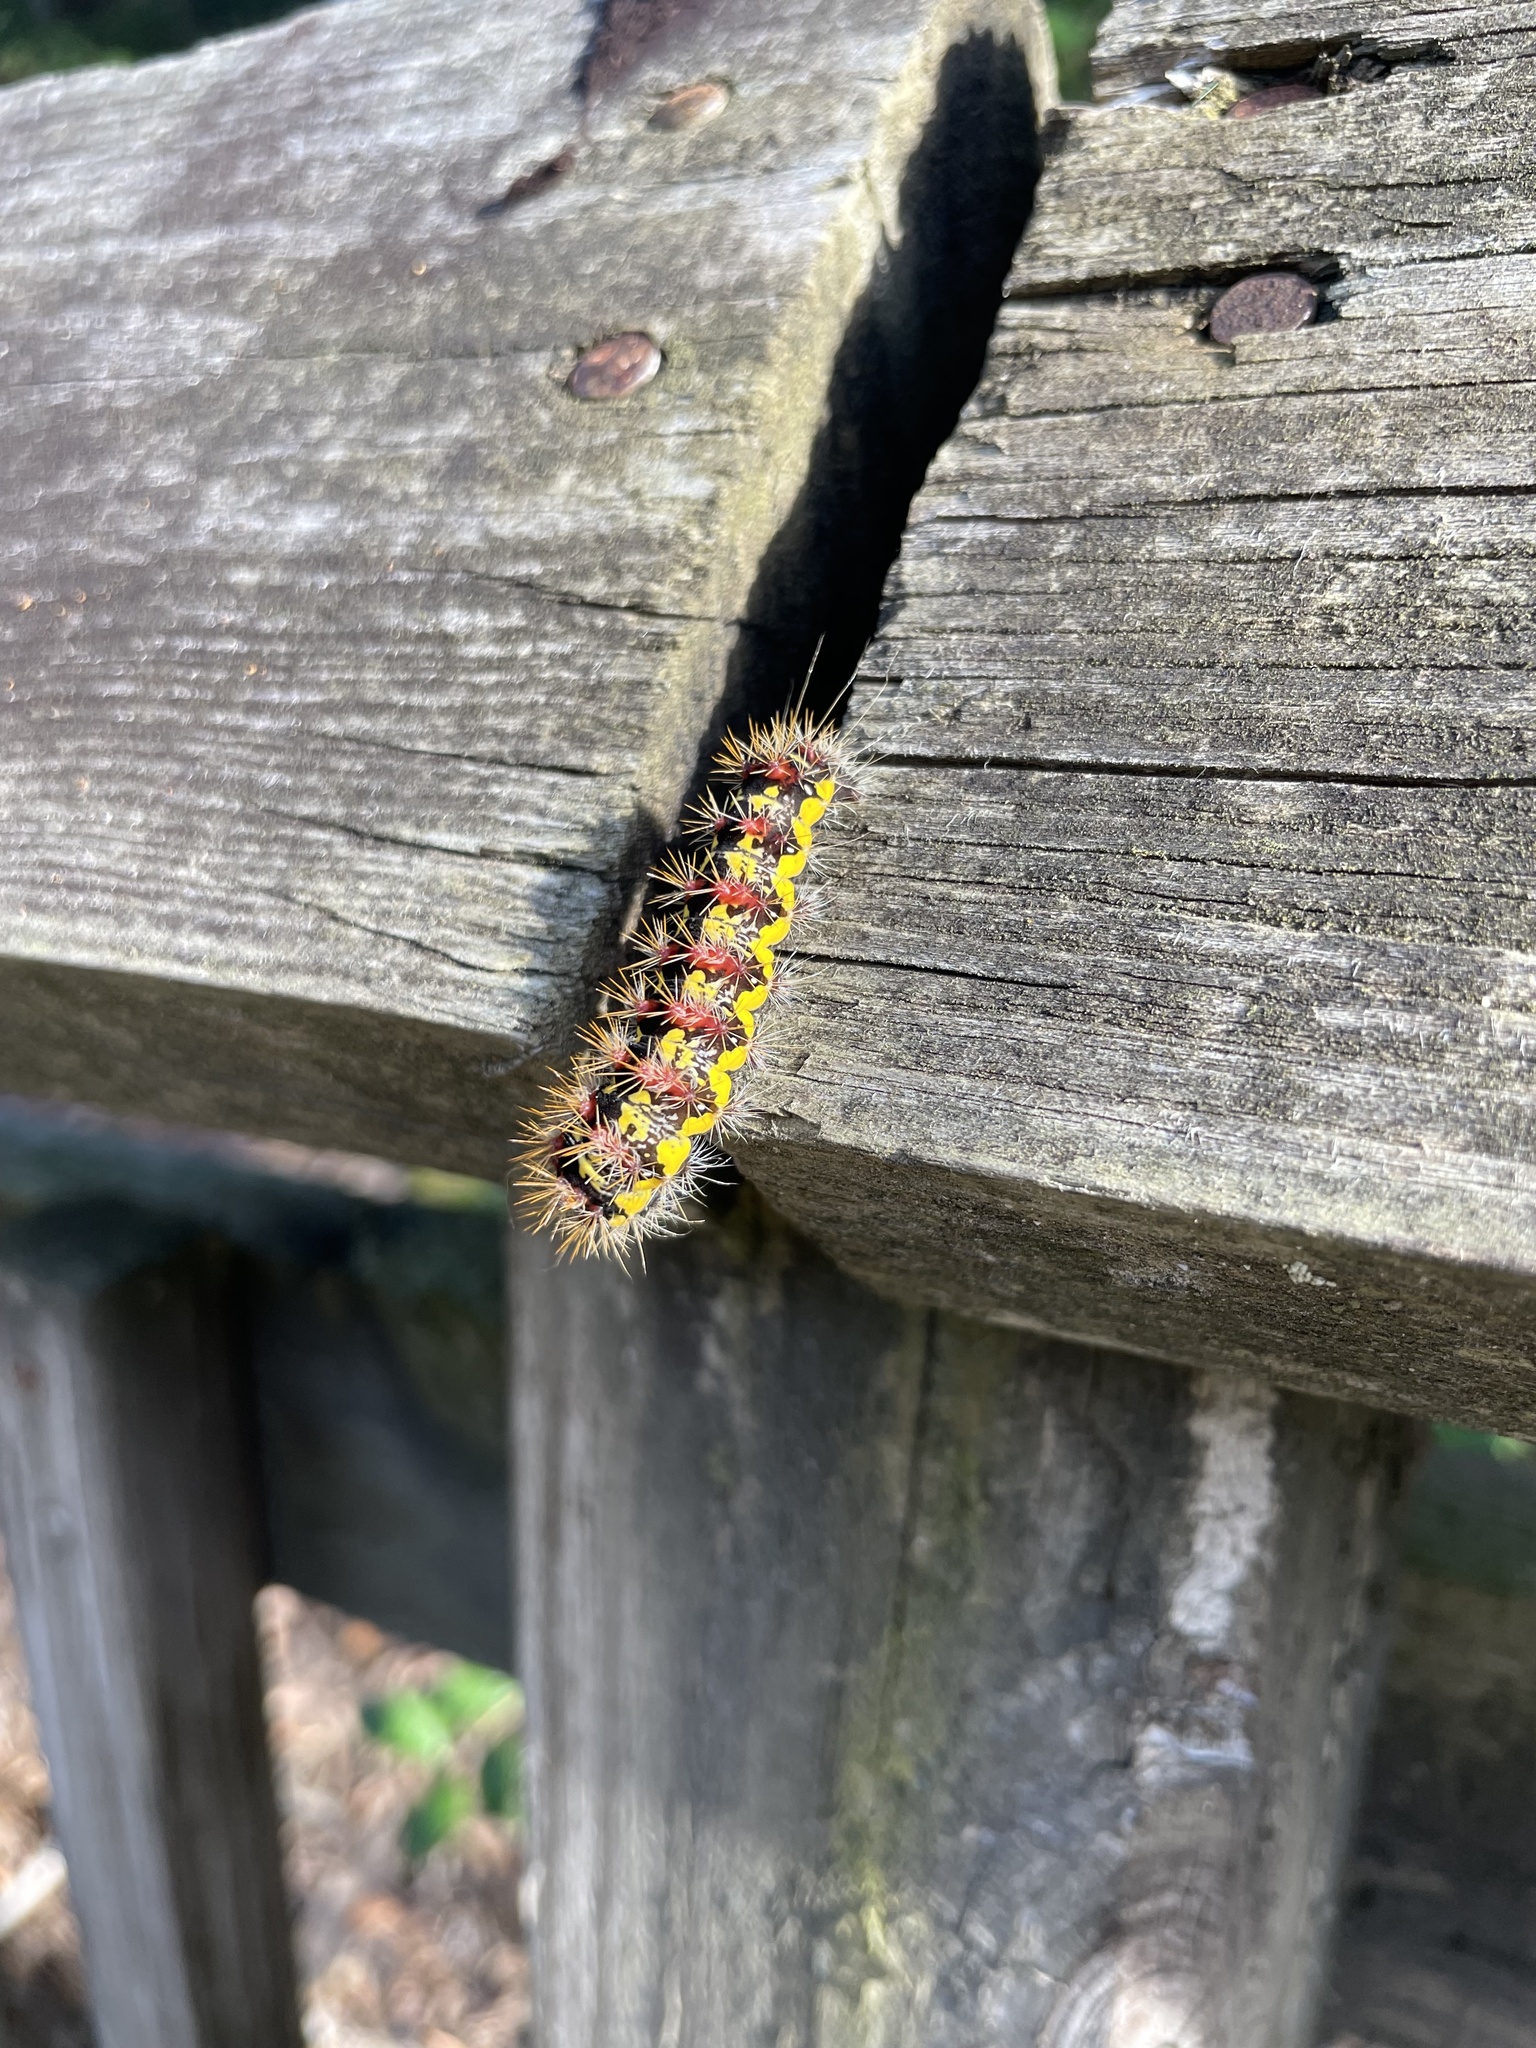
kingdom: Animalia
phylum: Arthropoda
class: Insecta
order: Lepidoptera
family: Noctuidae
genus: Acronicta
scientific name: Acronicta oblinita
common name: Smeared dagger
